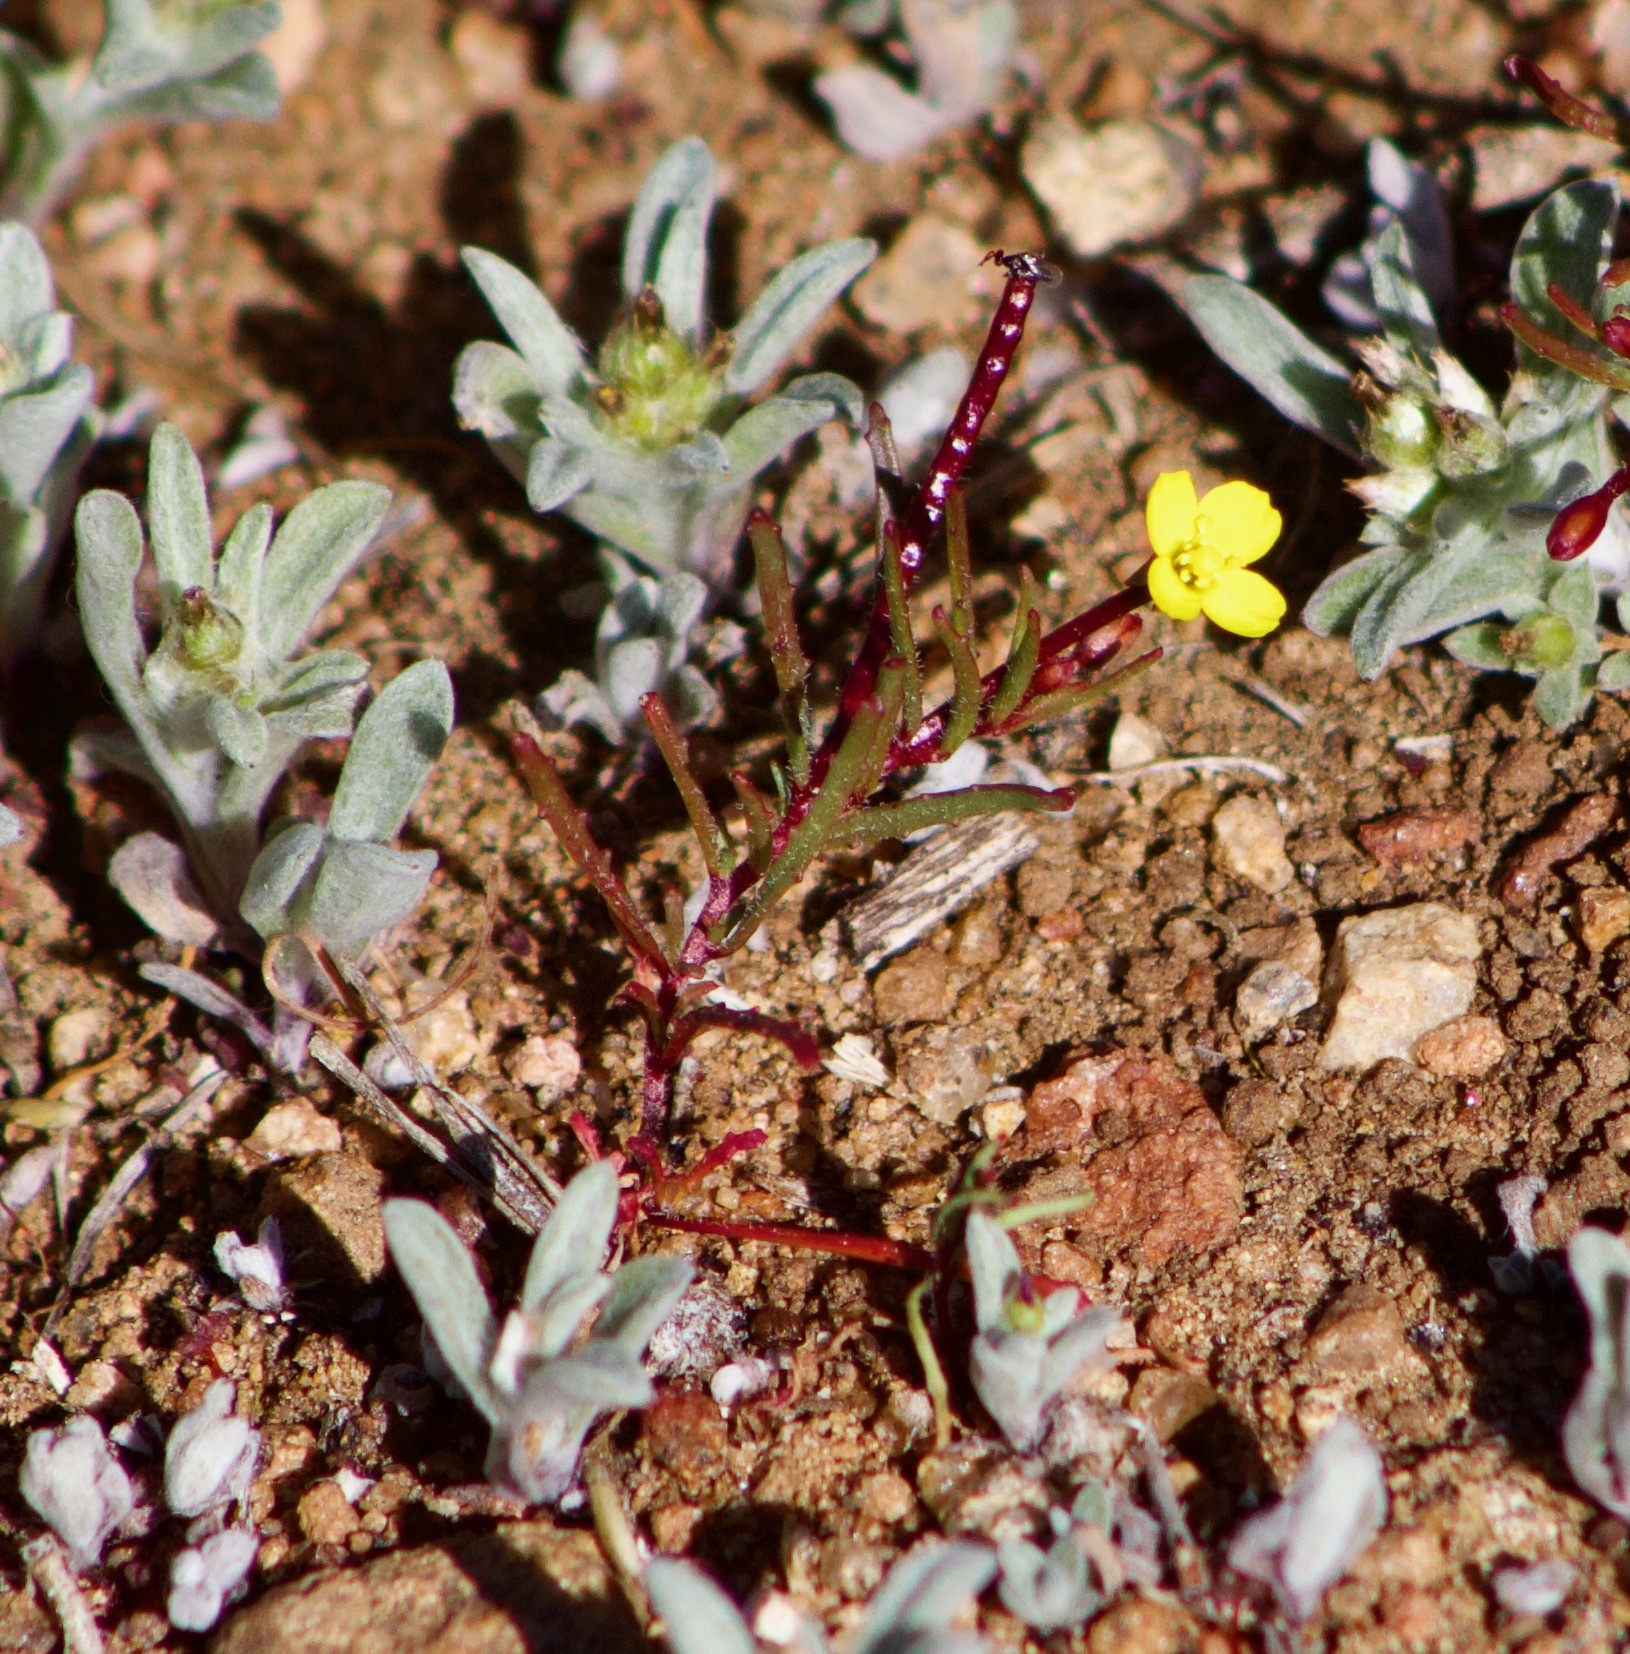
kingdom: Plantae
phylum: Tracheophyta
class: Magnoliopsida
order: Myrtales
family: Onagraceae
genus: Camissonia
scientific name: Camissonia dentata
